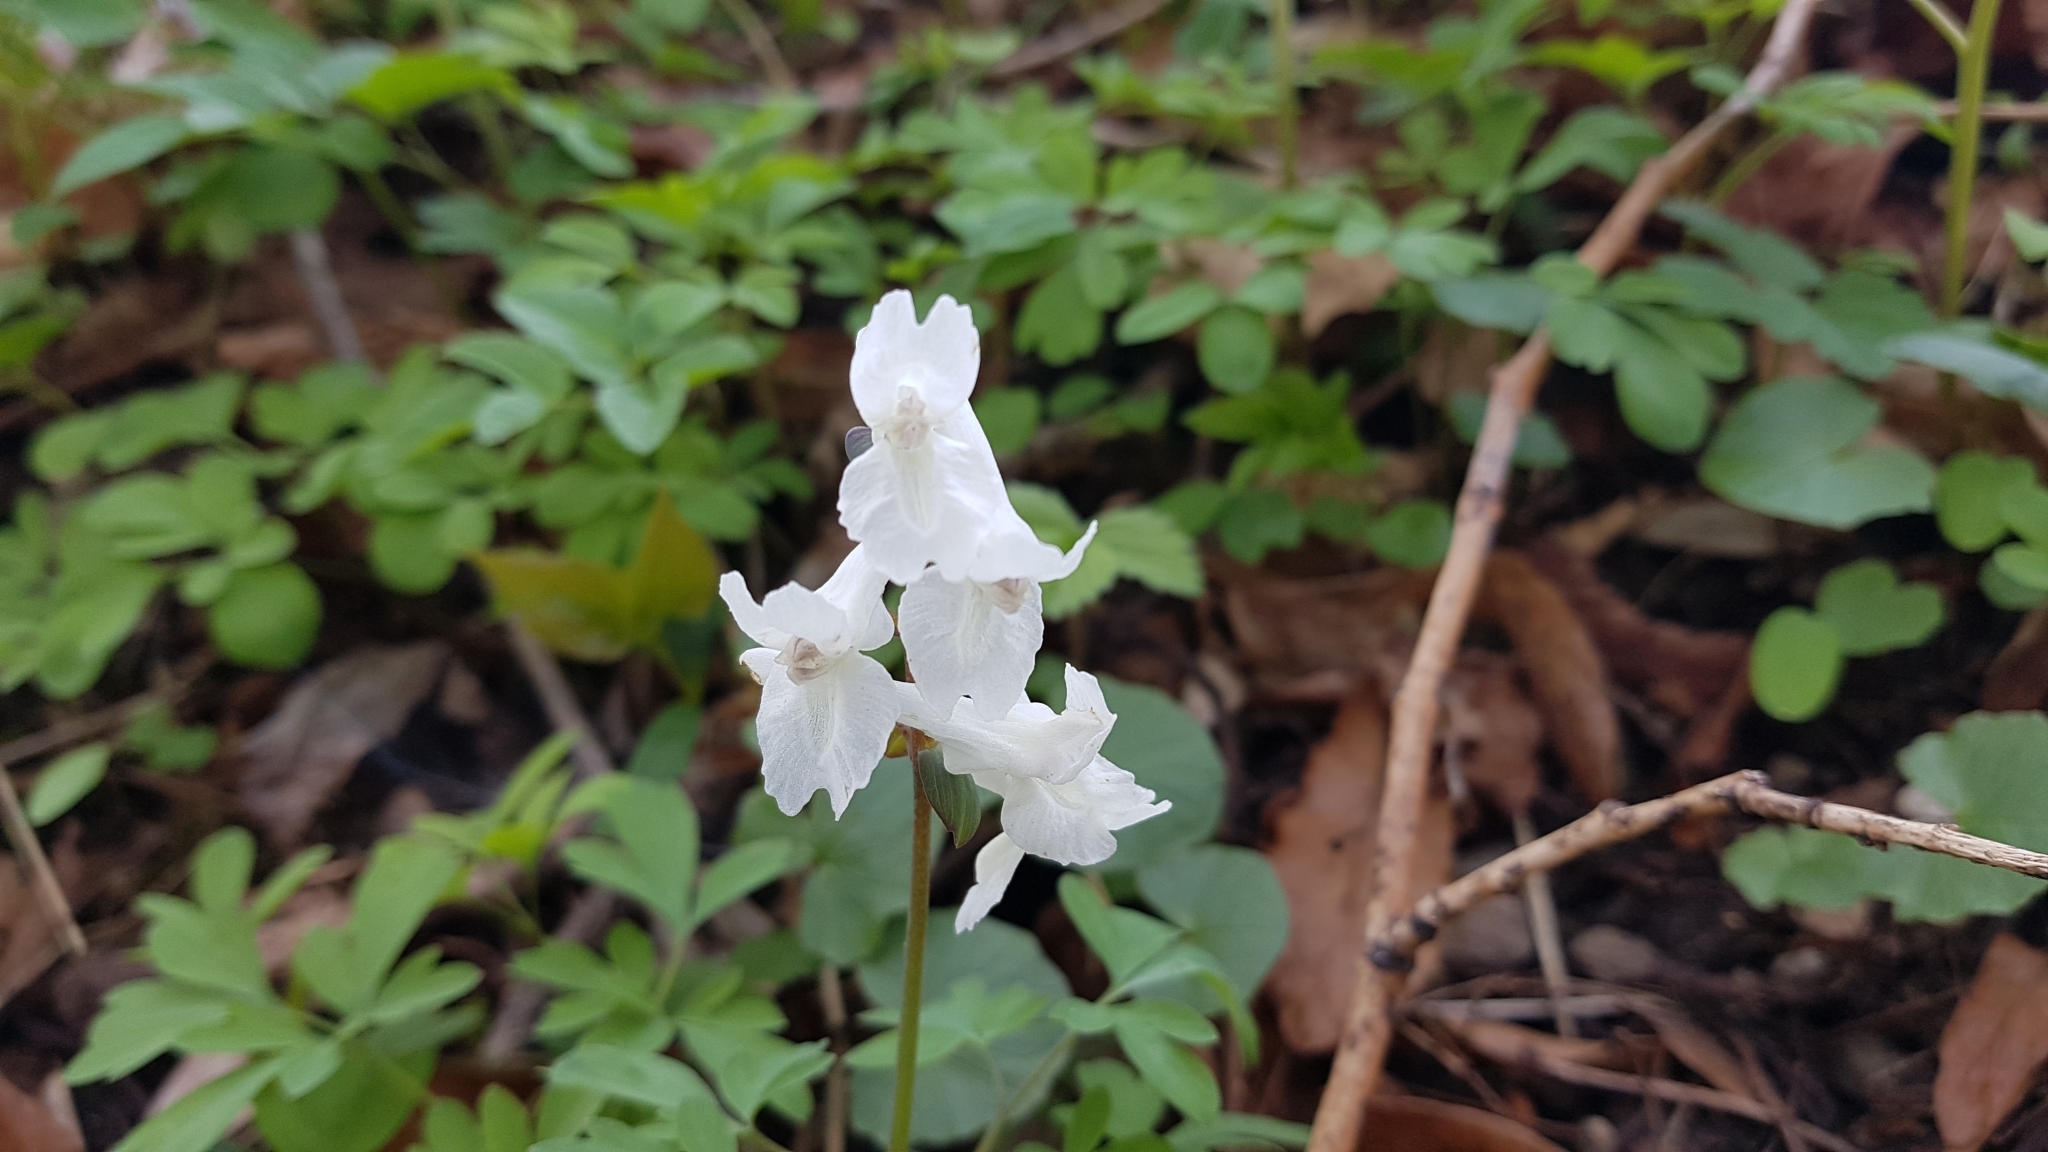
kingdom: Plantae
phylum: Tracheophyta
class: Magnoliopsida
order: Ranunculales
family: Papaveraceae
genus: Corydalis
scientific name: Corydalis cava
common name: Hollowroot
